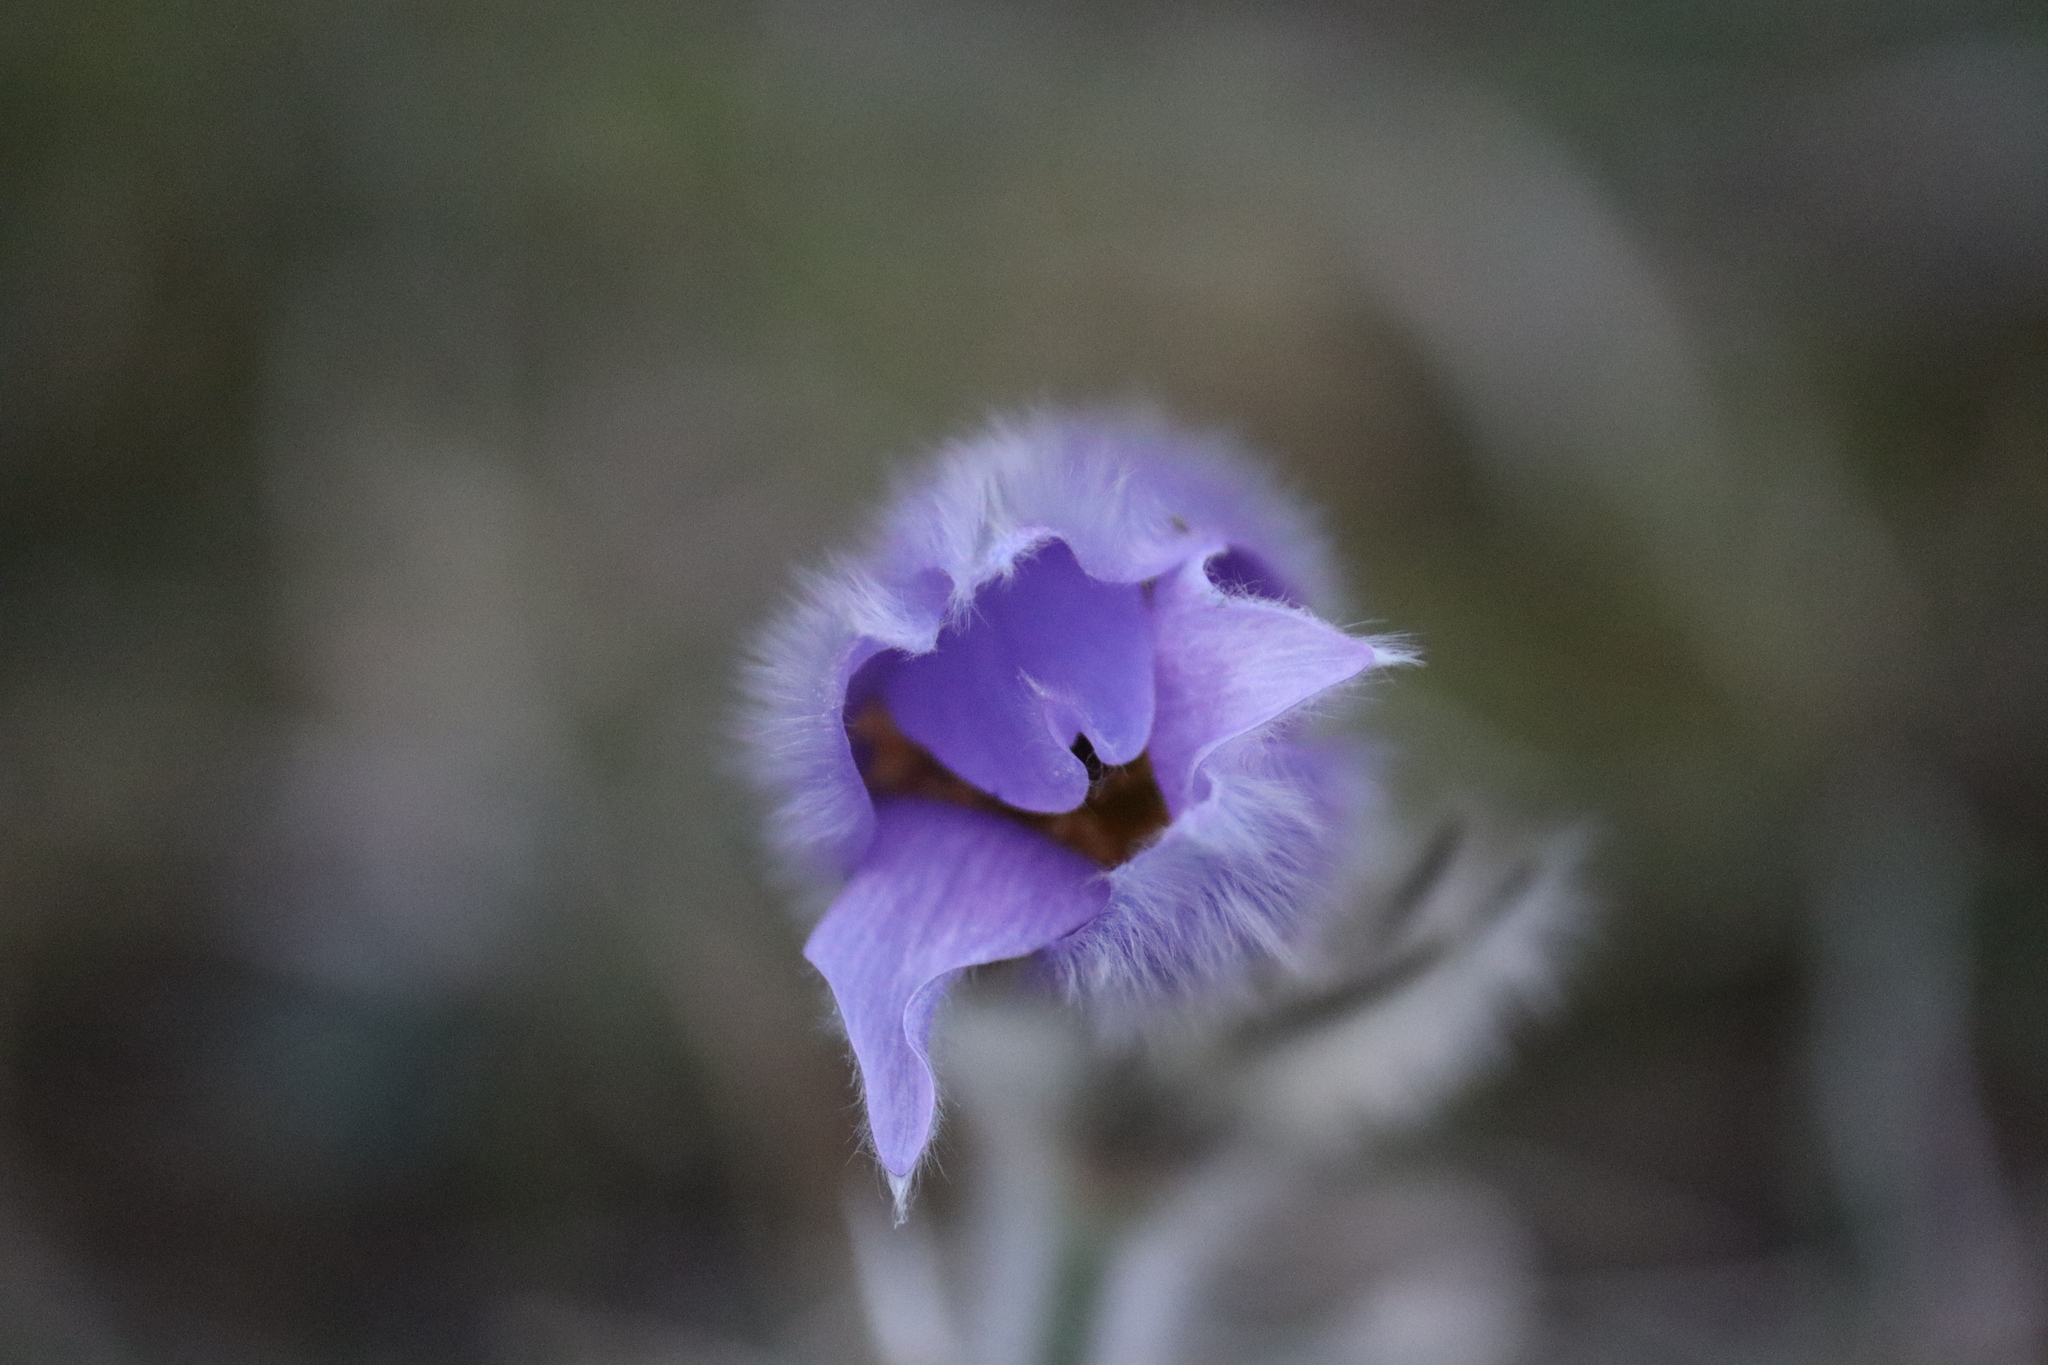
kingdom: Plantae
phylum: Tracheophyta
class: Magnoliopsida
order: Ranunculales
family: Ranunculaceae
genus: Pulsatilla
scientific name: Pulsatilla grandis
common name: Greater pasque flower
